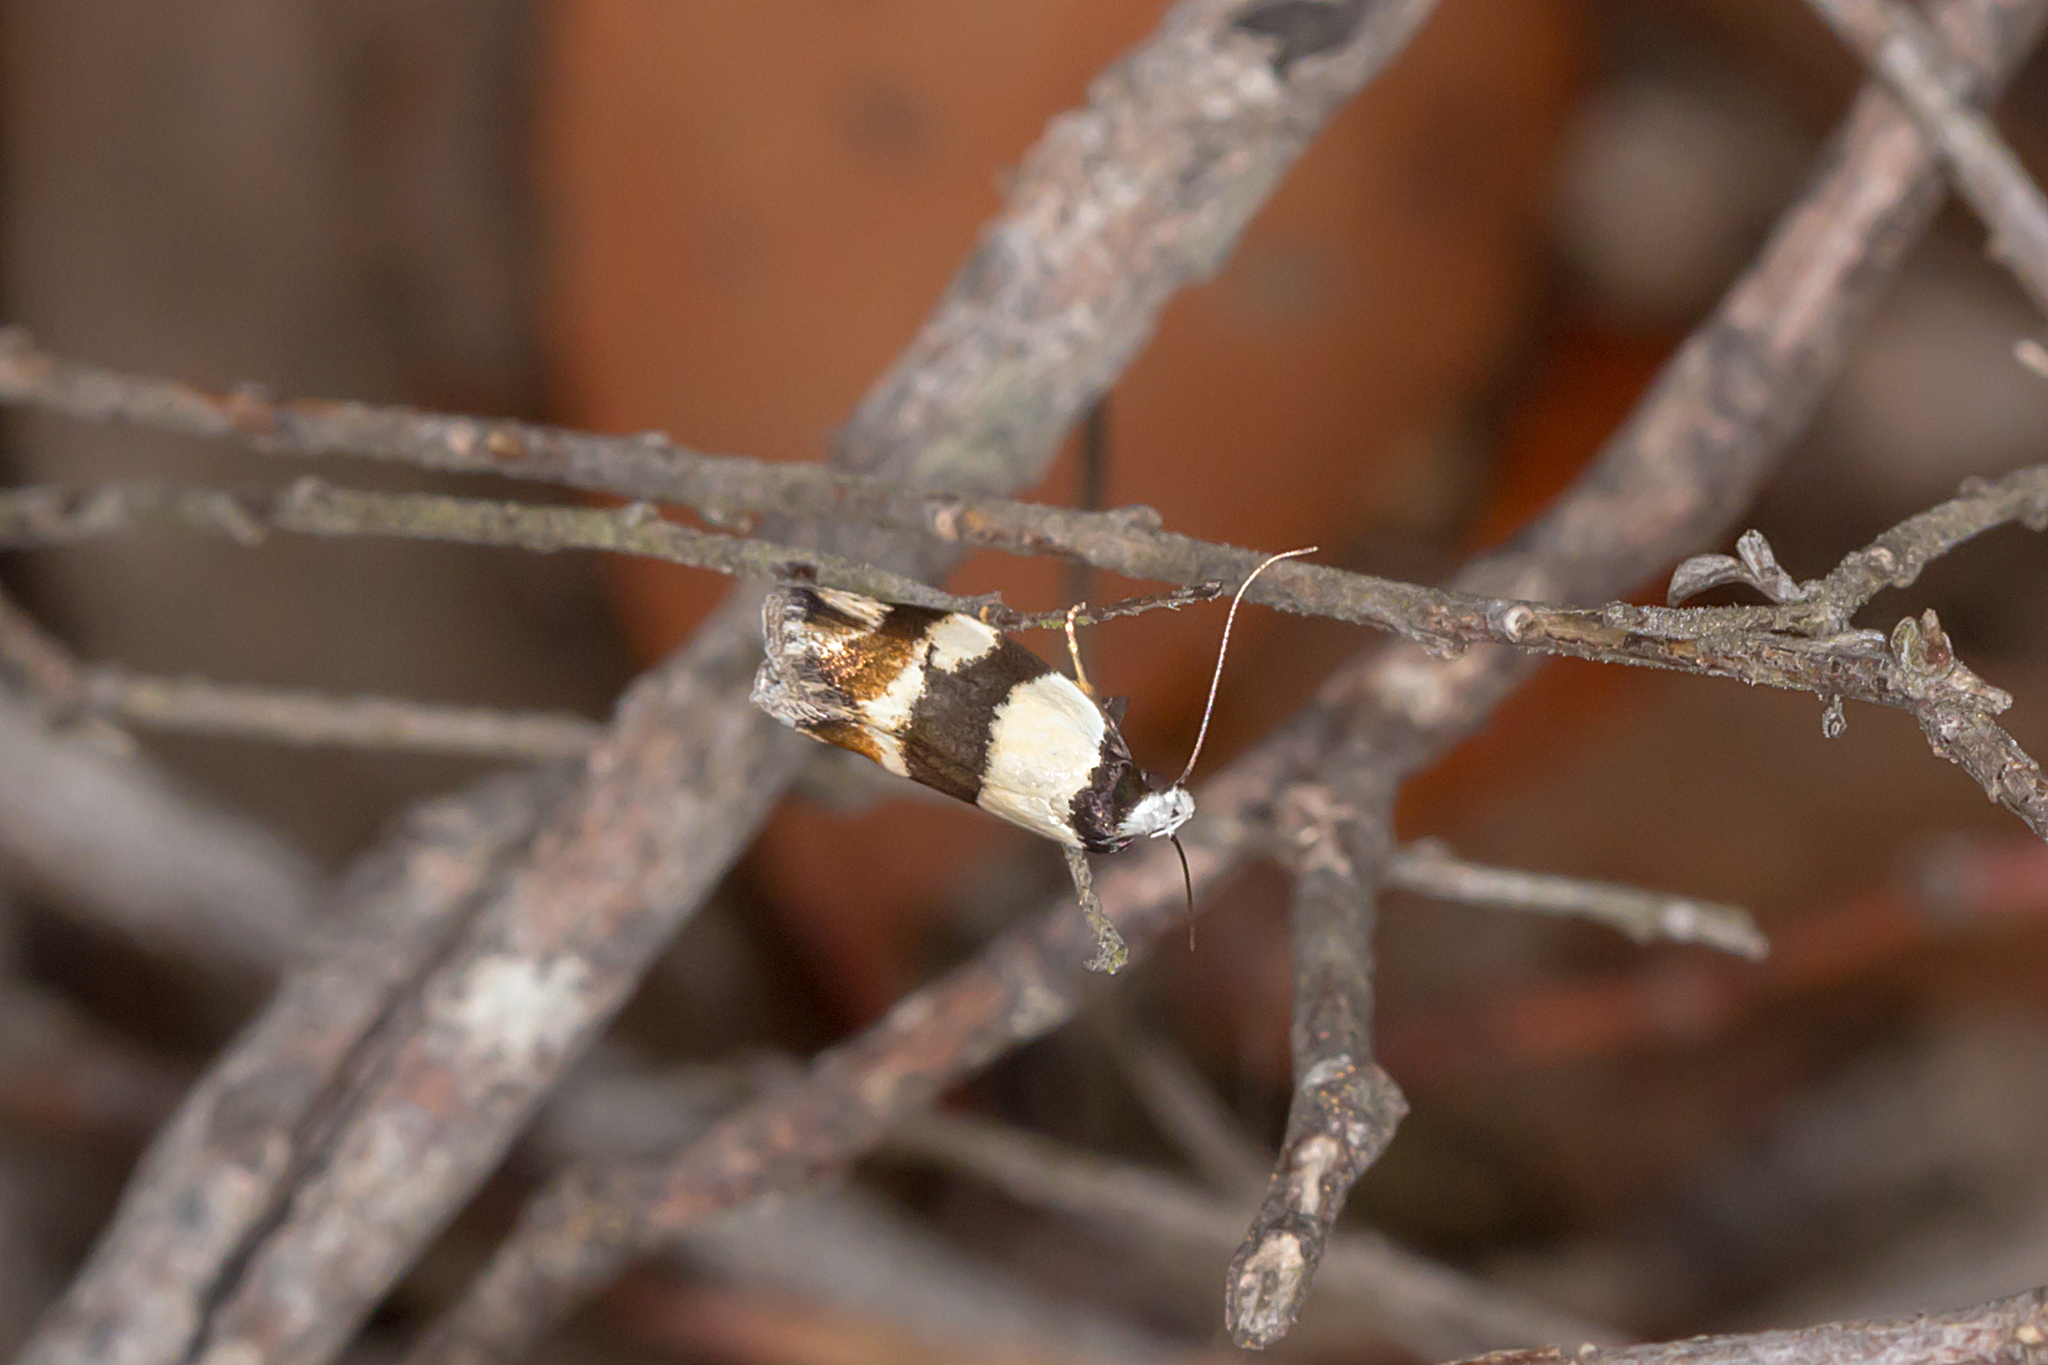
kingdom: Animalia
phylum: Arthropoda
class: Insecta
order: Lepidoptera
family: Oecophoridae
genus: Zonopetala
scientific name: Zonopetala decisana
